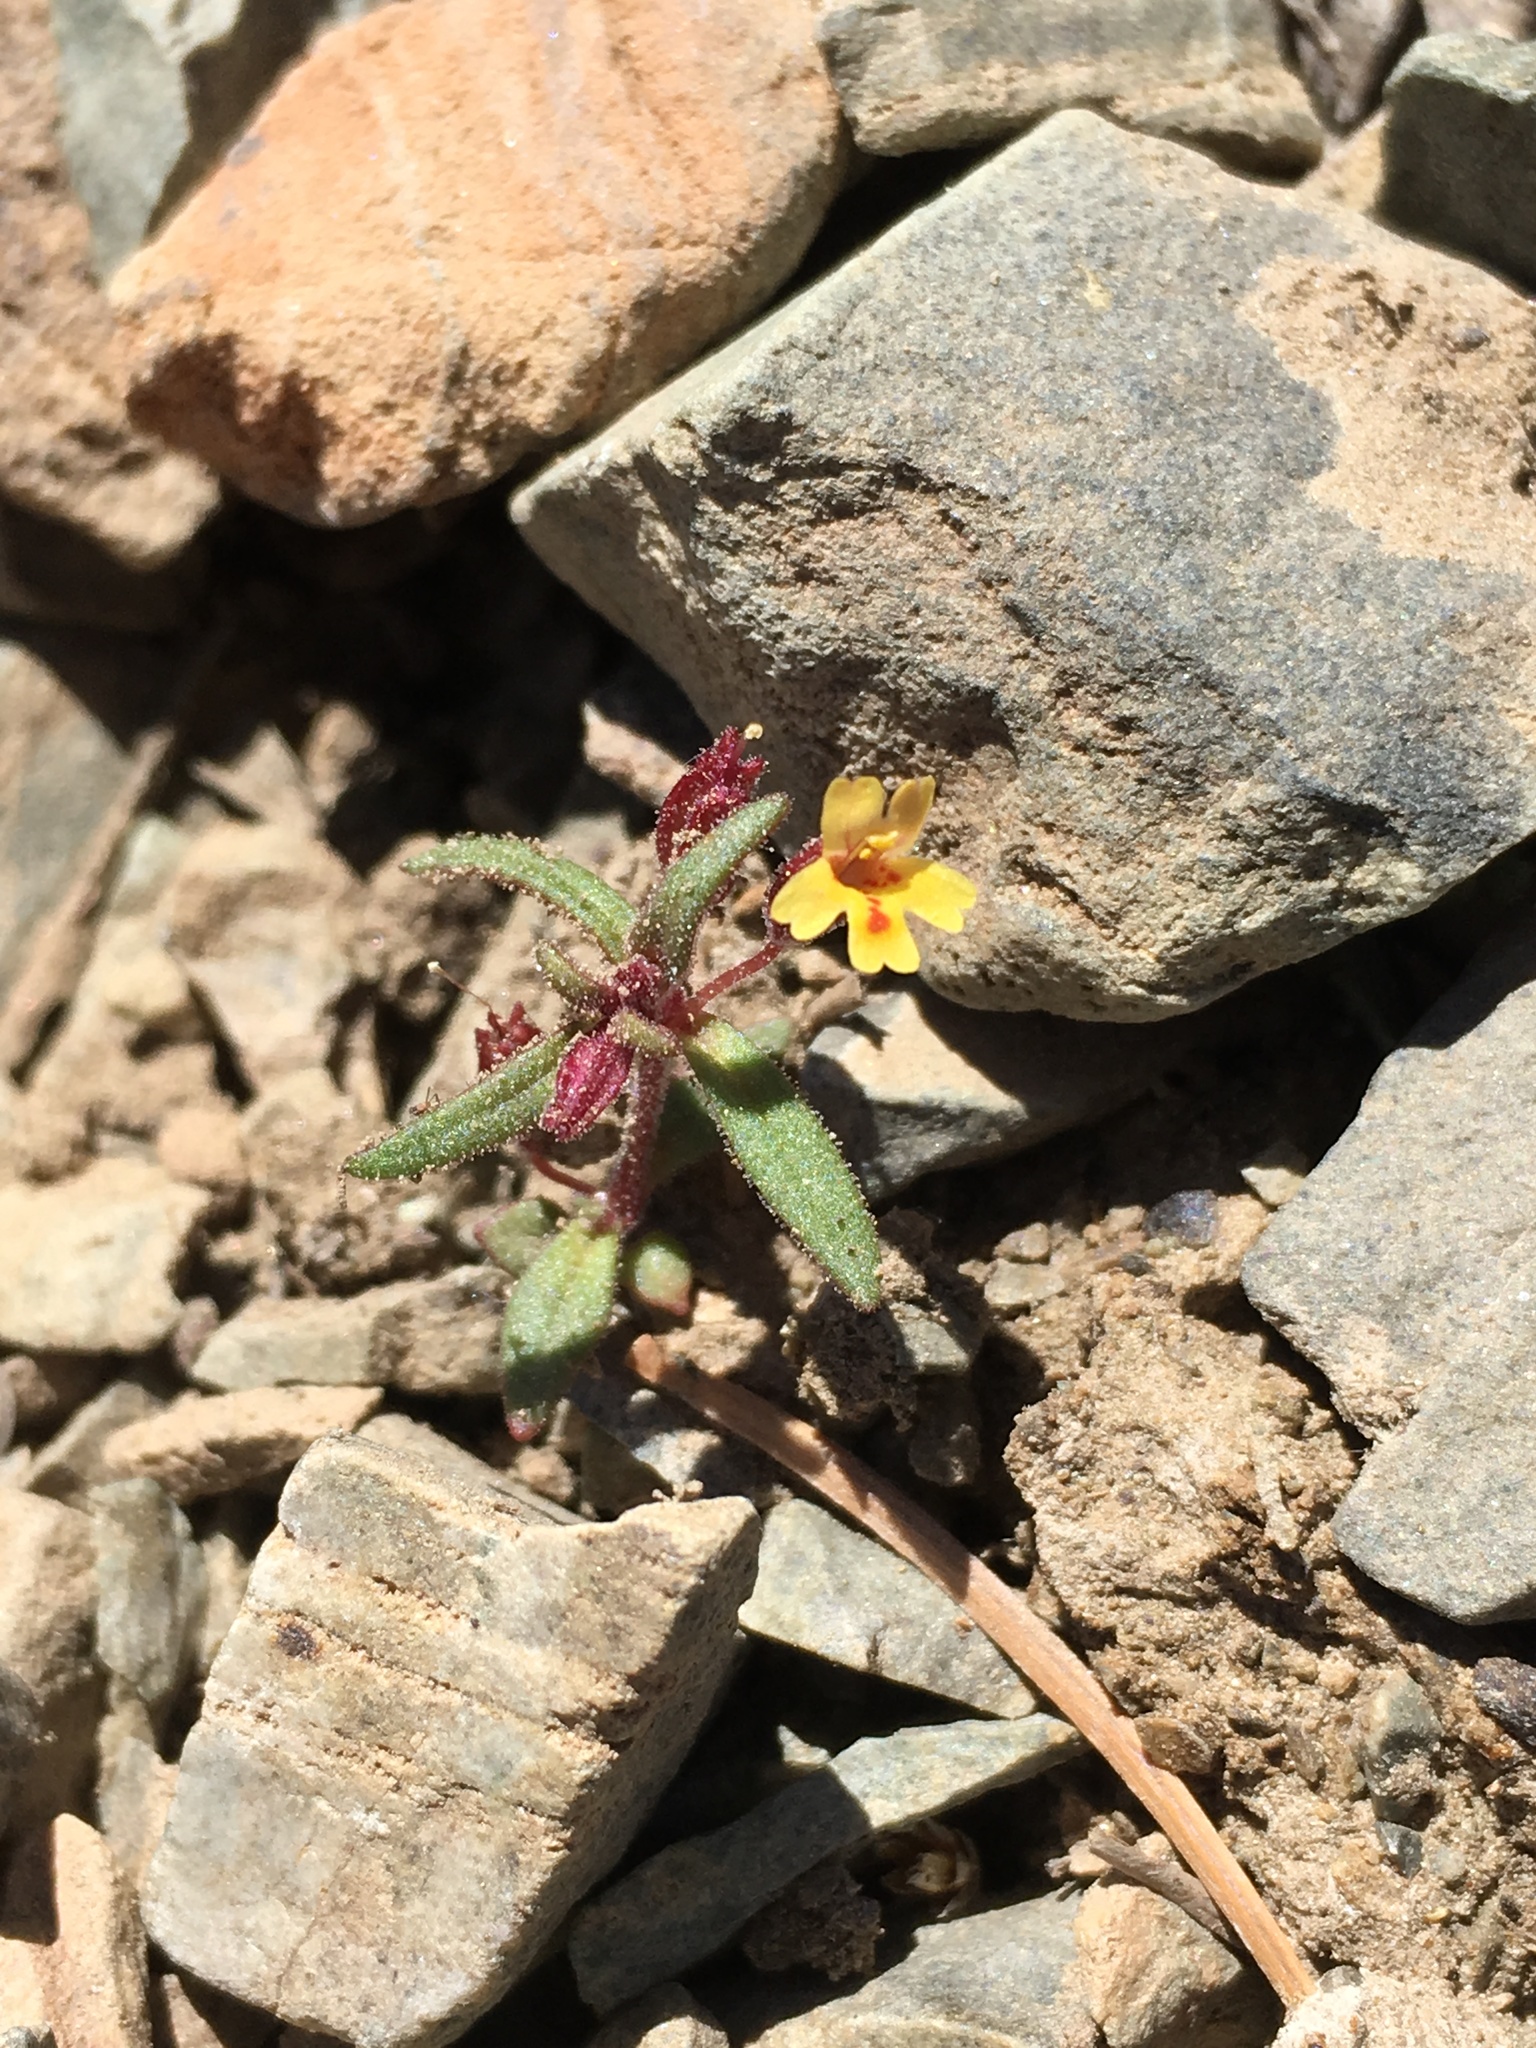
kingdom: Plantae
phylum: Tracheophyta
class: Magnoliopsida
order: Lamiales
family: Phrymaceae
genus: Erythranthe
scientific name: Erythranthe rubella
